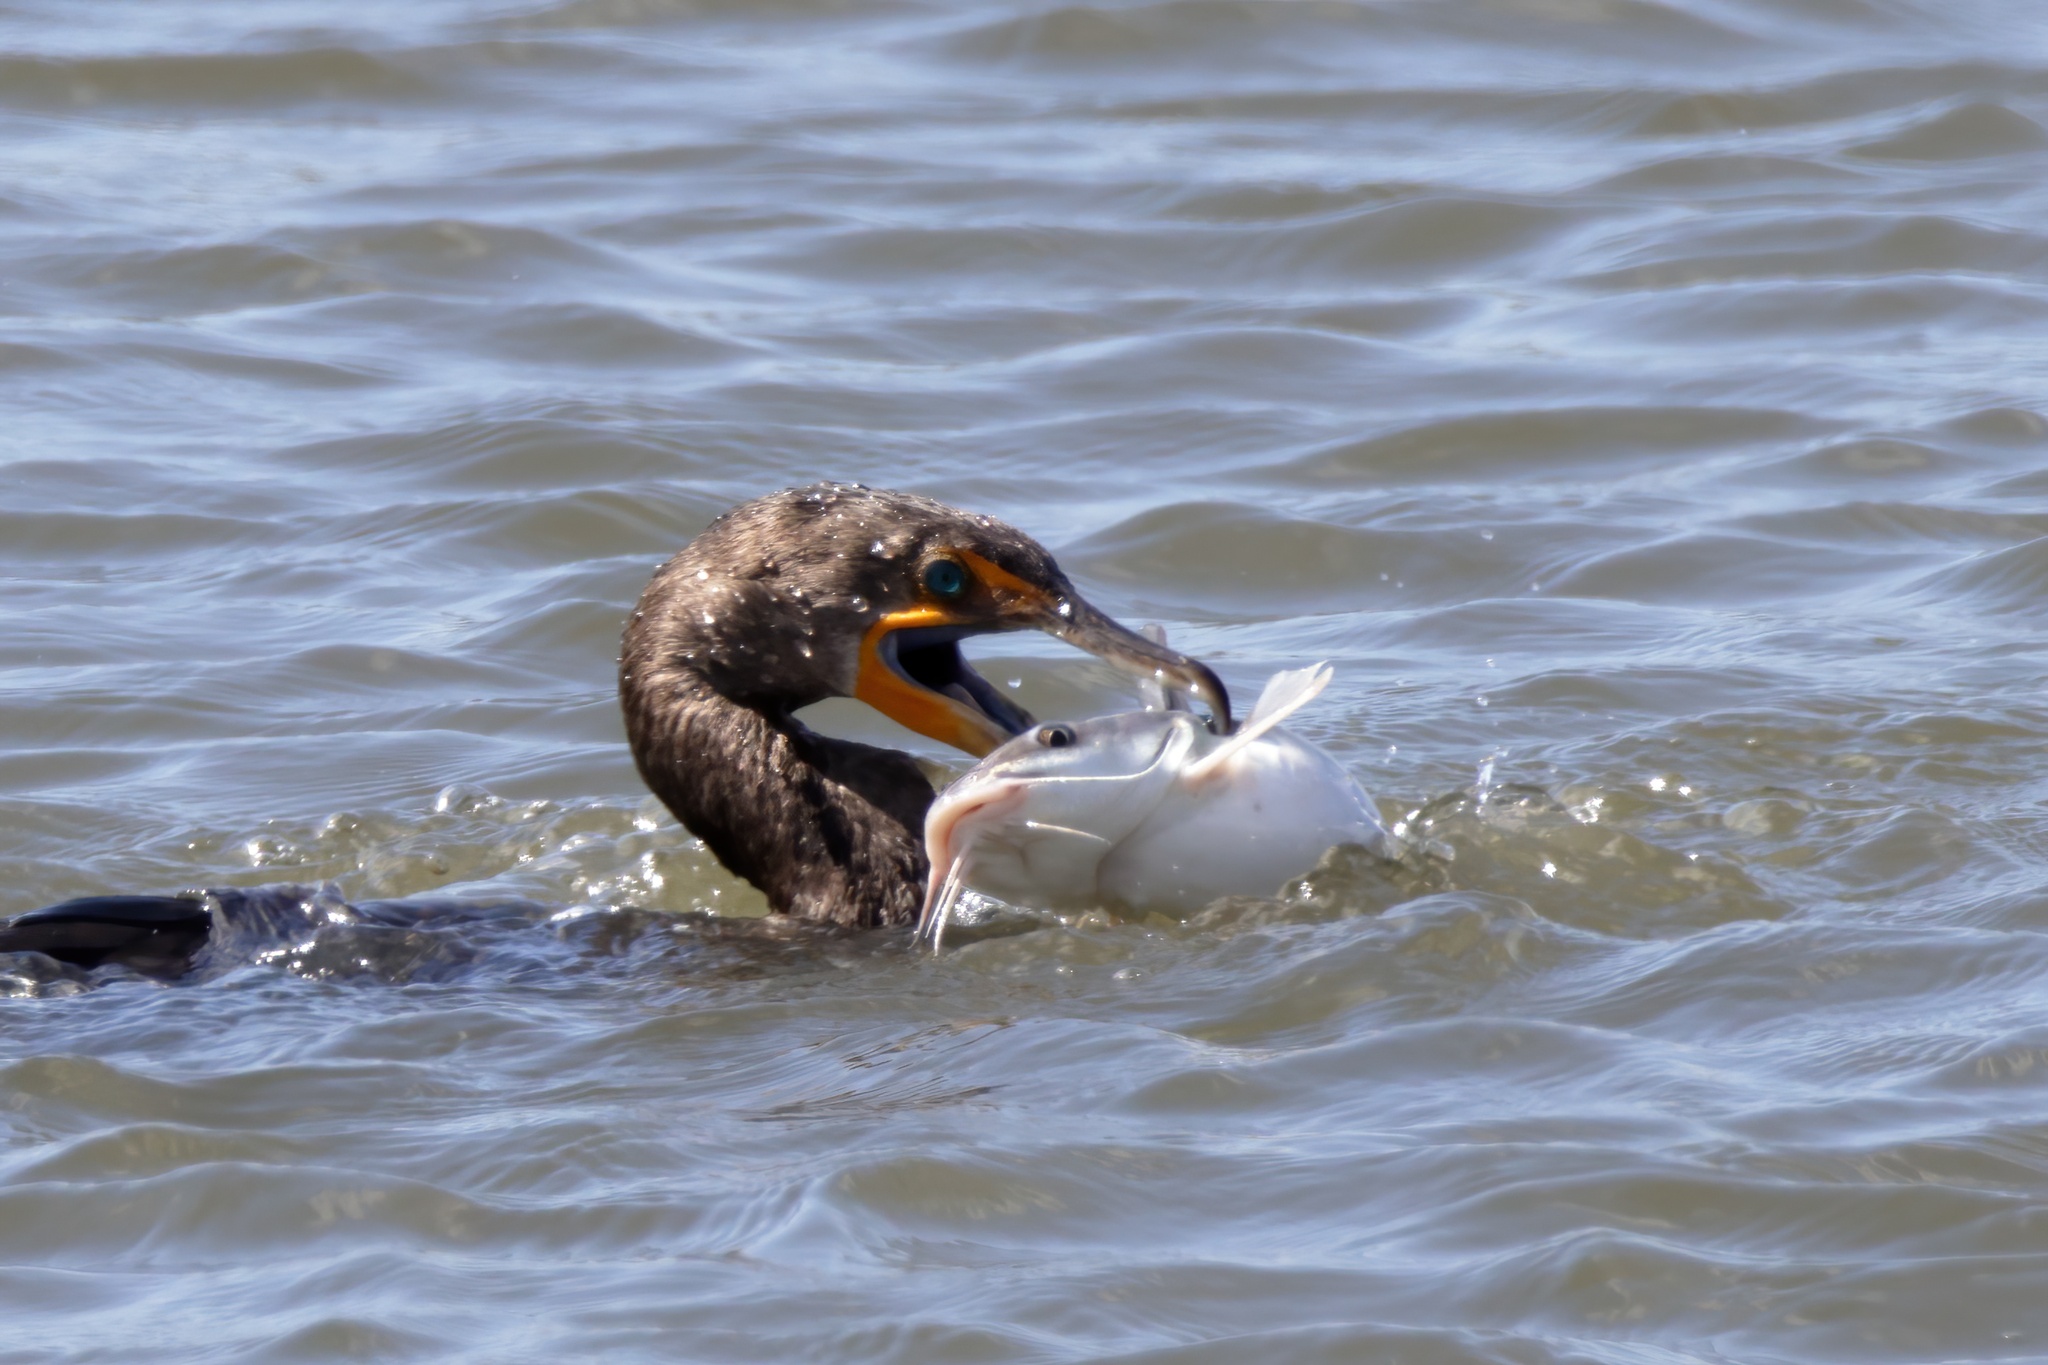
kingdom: Animalia
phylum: Chordata
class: Aves
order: Suliformes
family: Phalacrocoracidae
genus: Phalacrocorax
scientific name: Phalacrocorax auritus
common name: Double-crested cormorant
